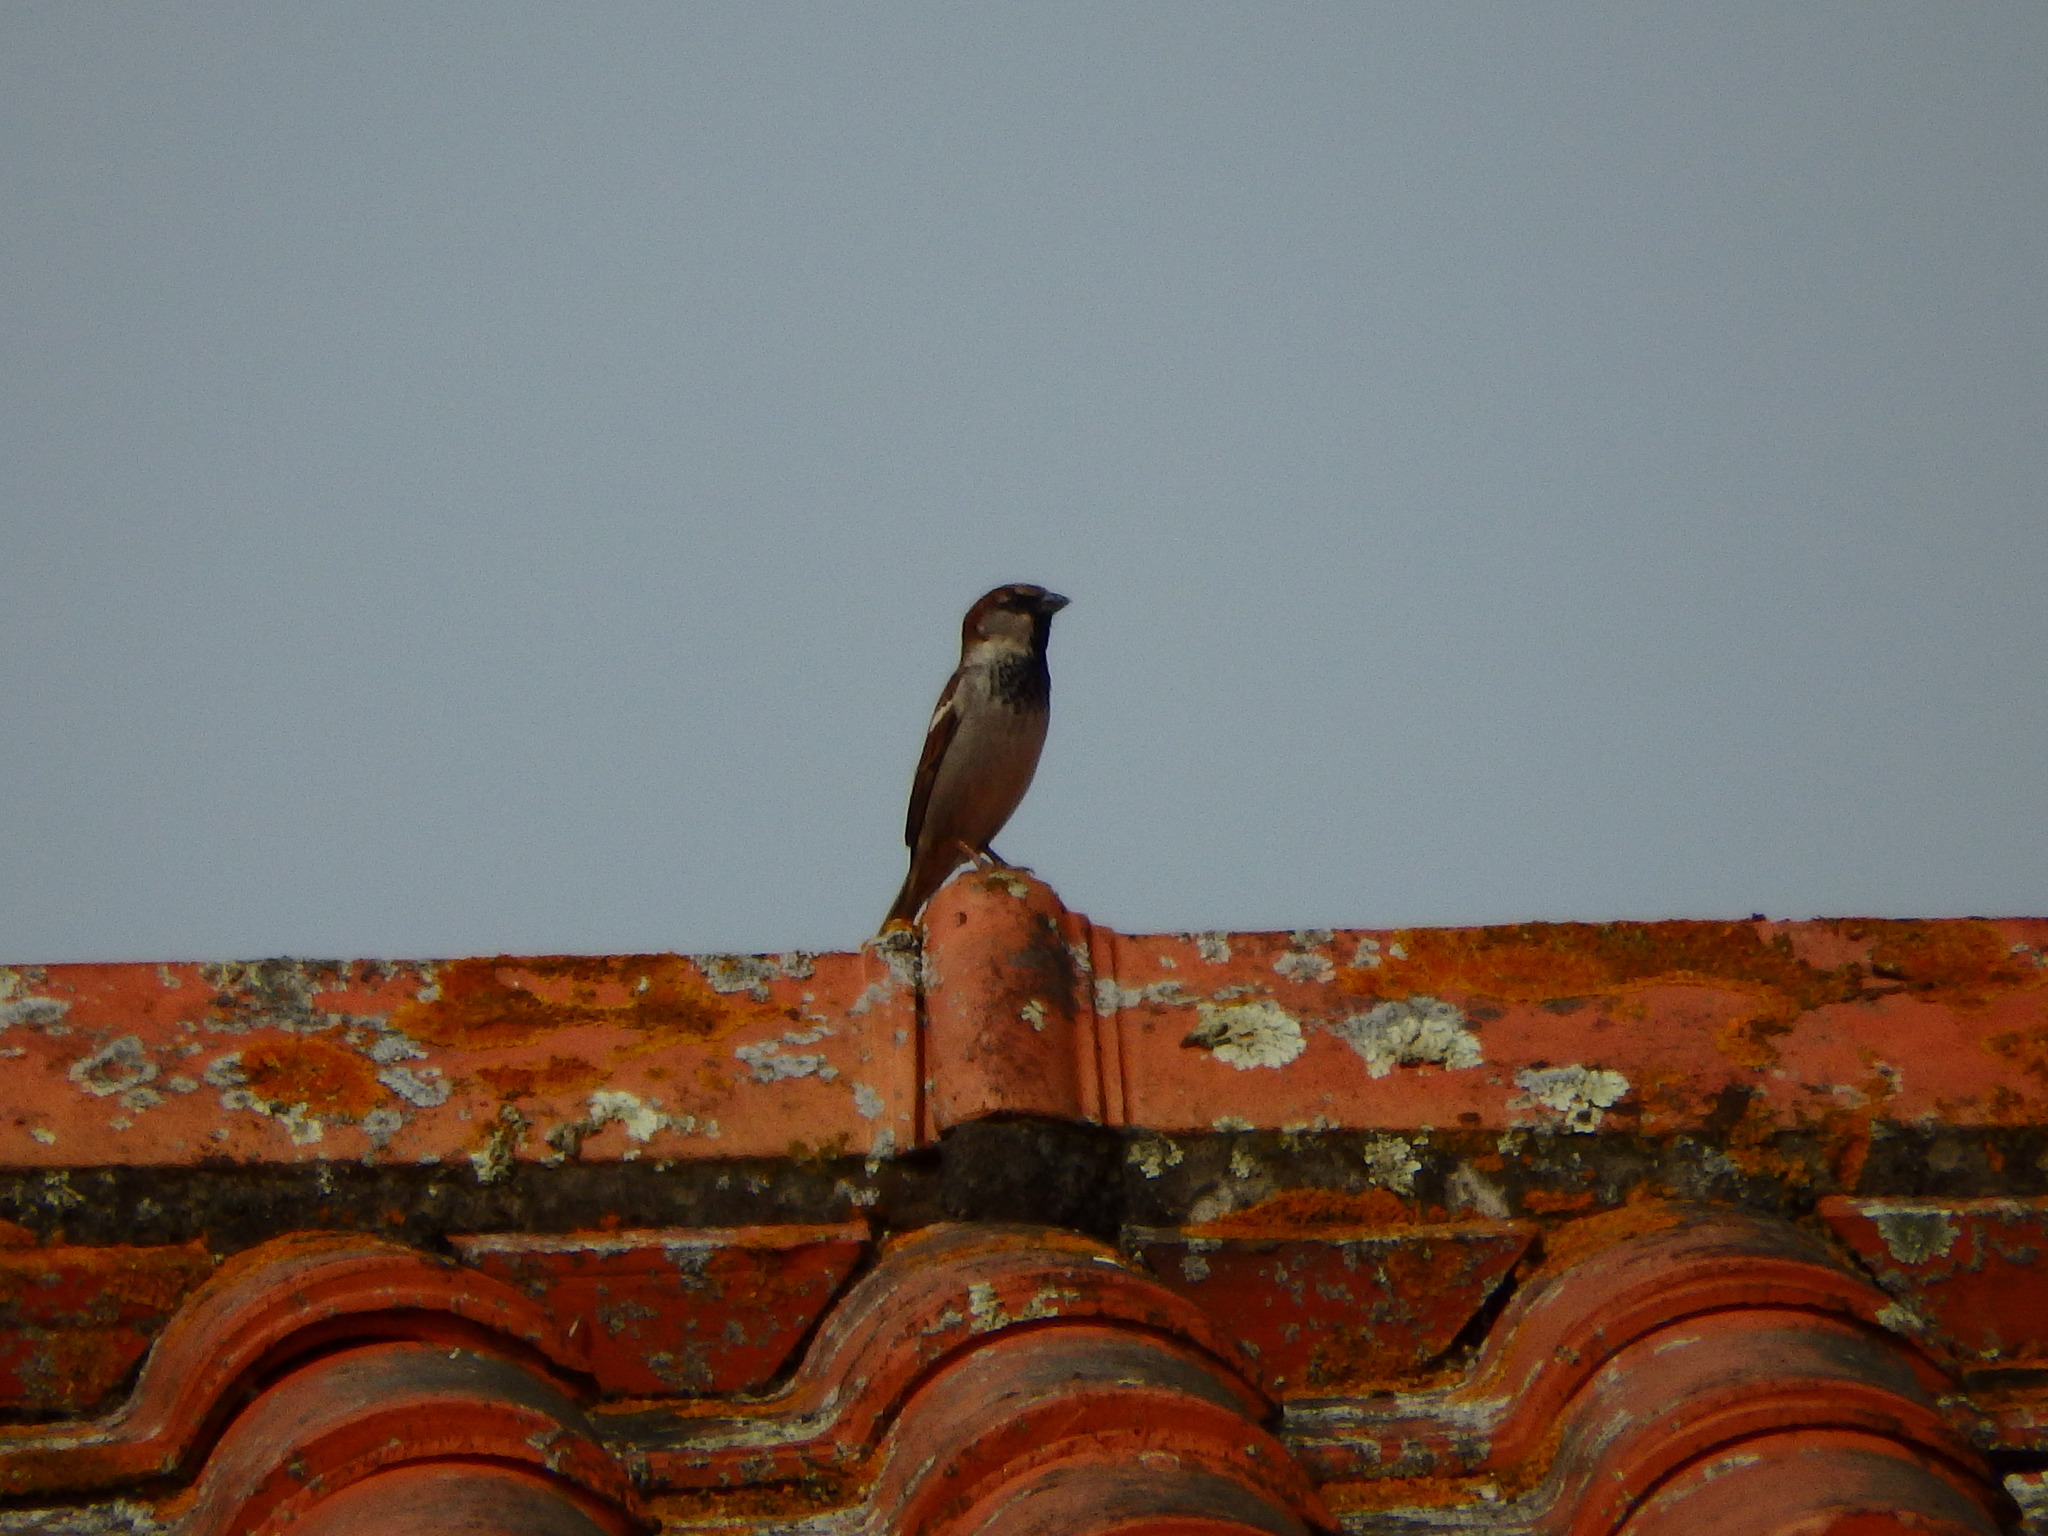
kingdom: Animalia
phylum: Chordata
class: Aves
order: Passeriformes
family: Passeridae
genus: Passer
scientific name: Passer domesticus
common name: House sparrow
